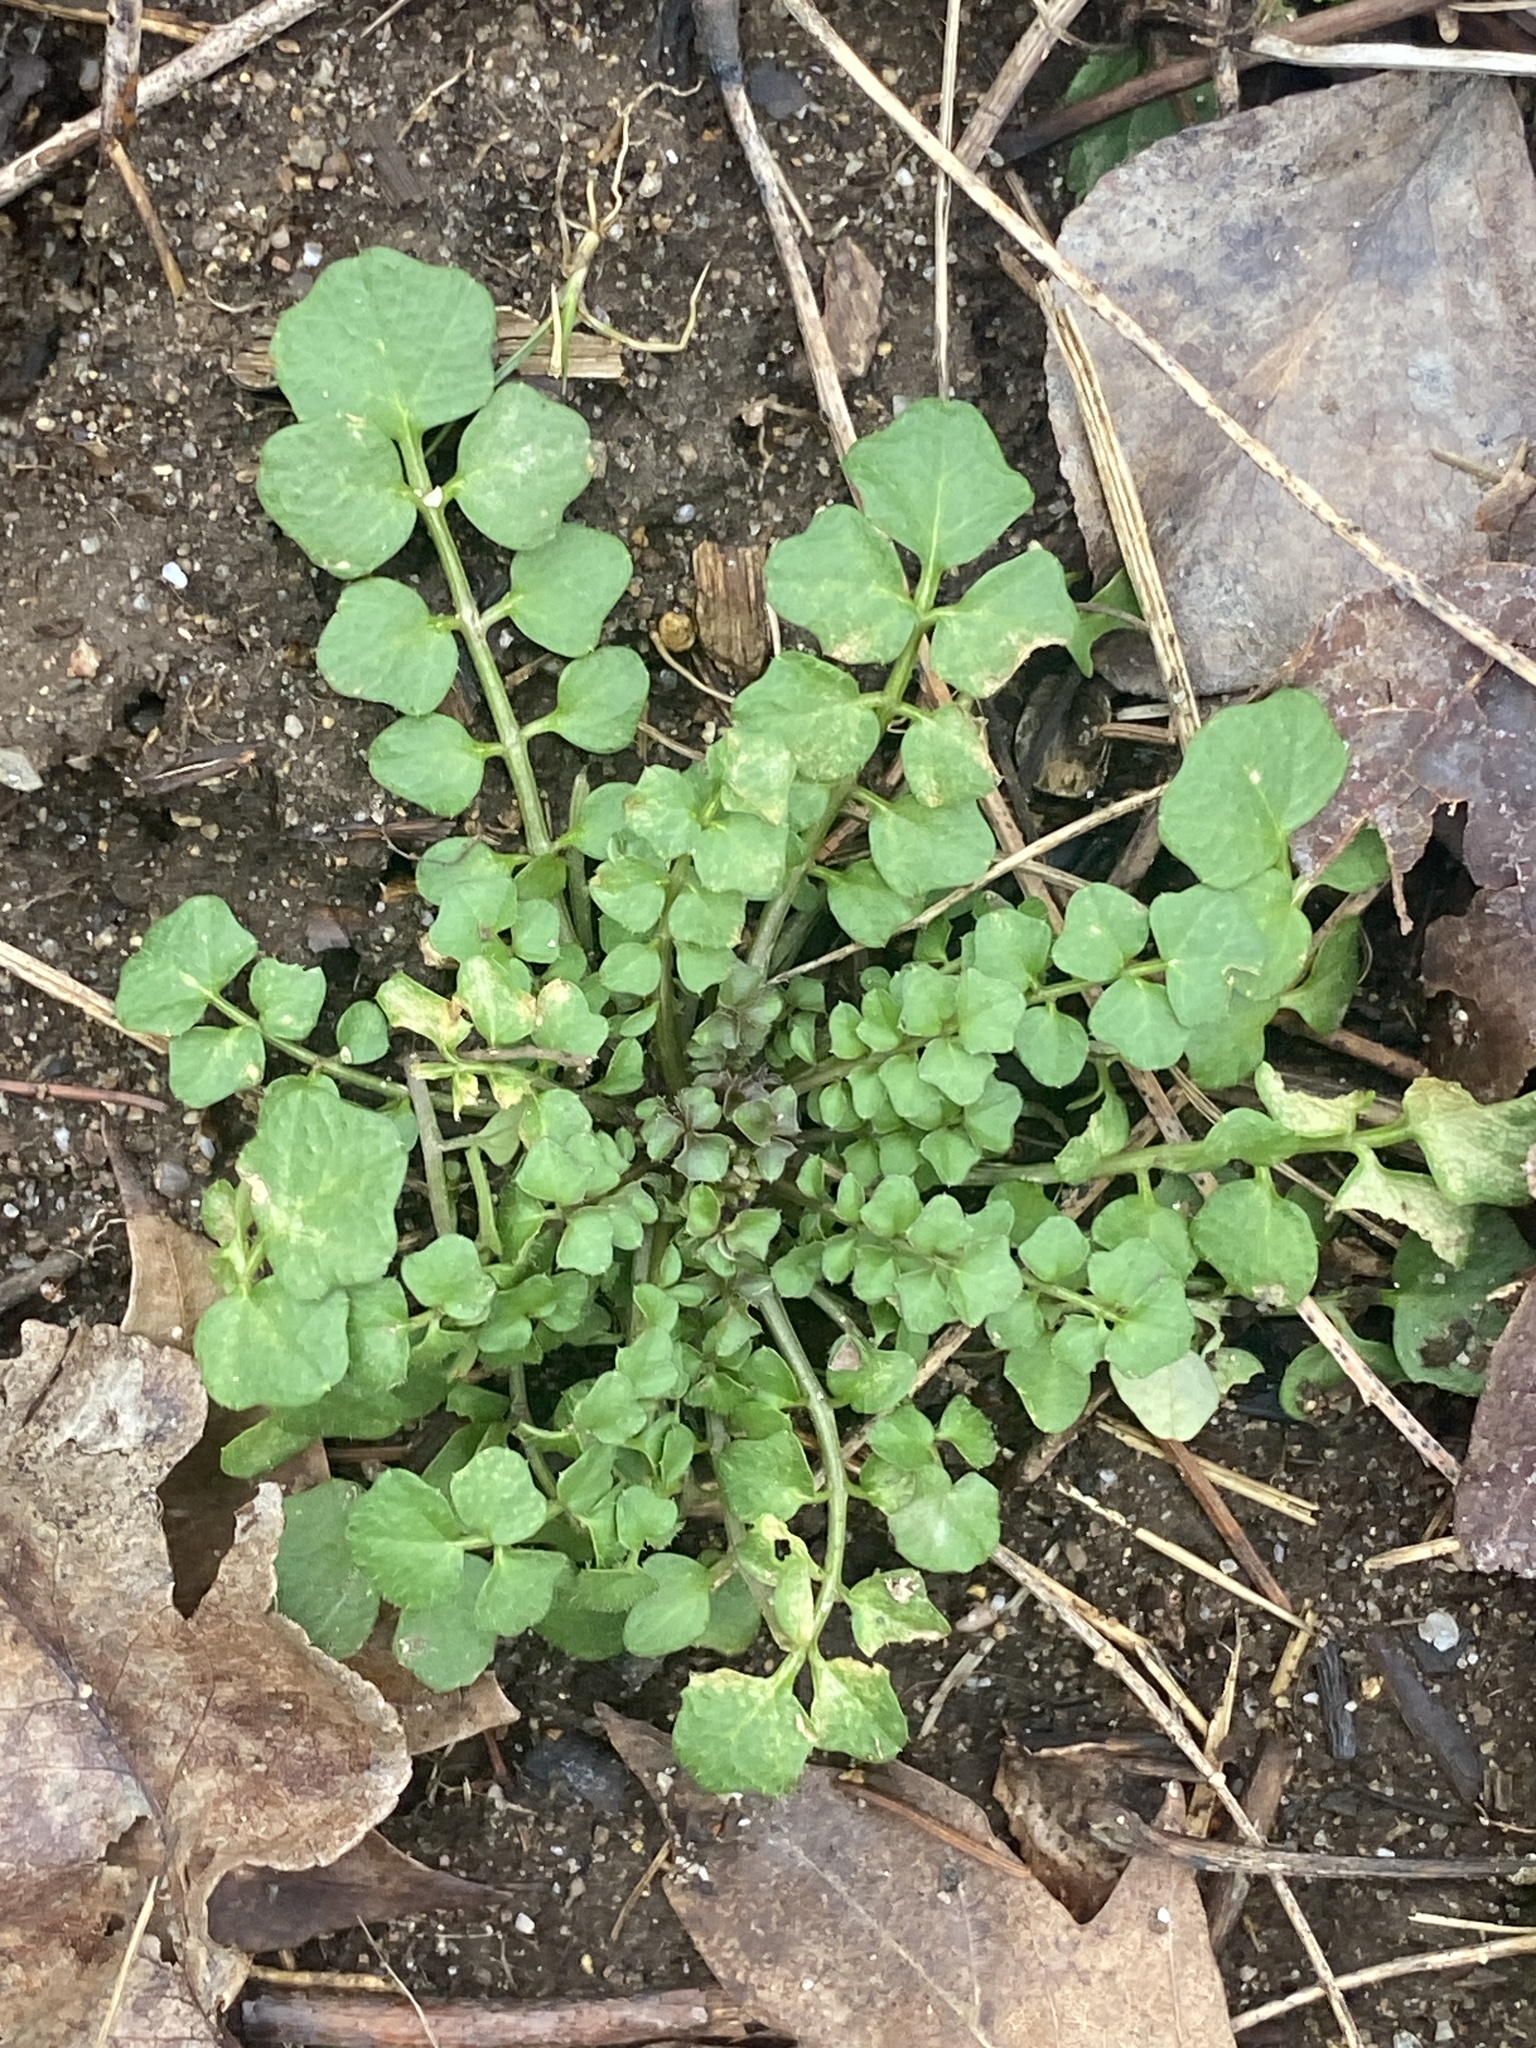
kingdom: Plantae
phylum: Tracheophyta
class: Magnoliopsida
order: Brassicales
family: Brassicaceae
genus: Cardamine
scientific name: Cardamine hirsuta
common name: Hairy bittercress
